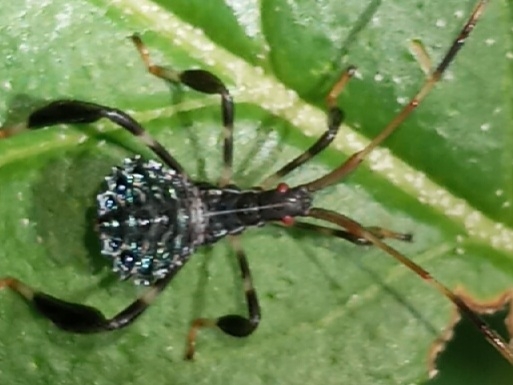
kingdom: Animalia
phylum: Arthropoda
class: Insecta
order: Hemiptera
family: Coreidae
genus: Acanthocephala
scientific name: Acanthocephala terminalis
